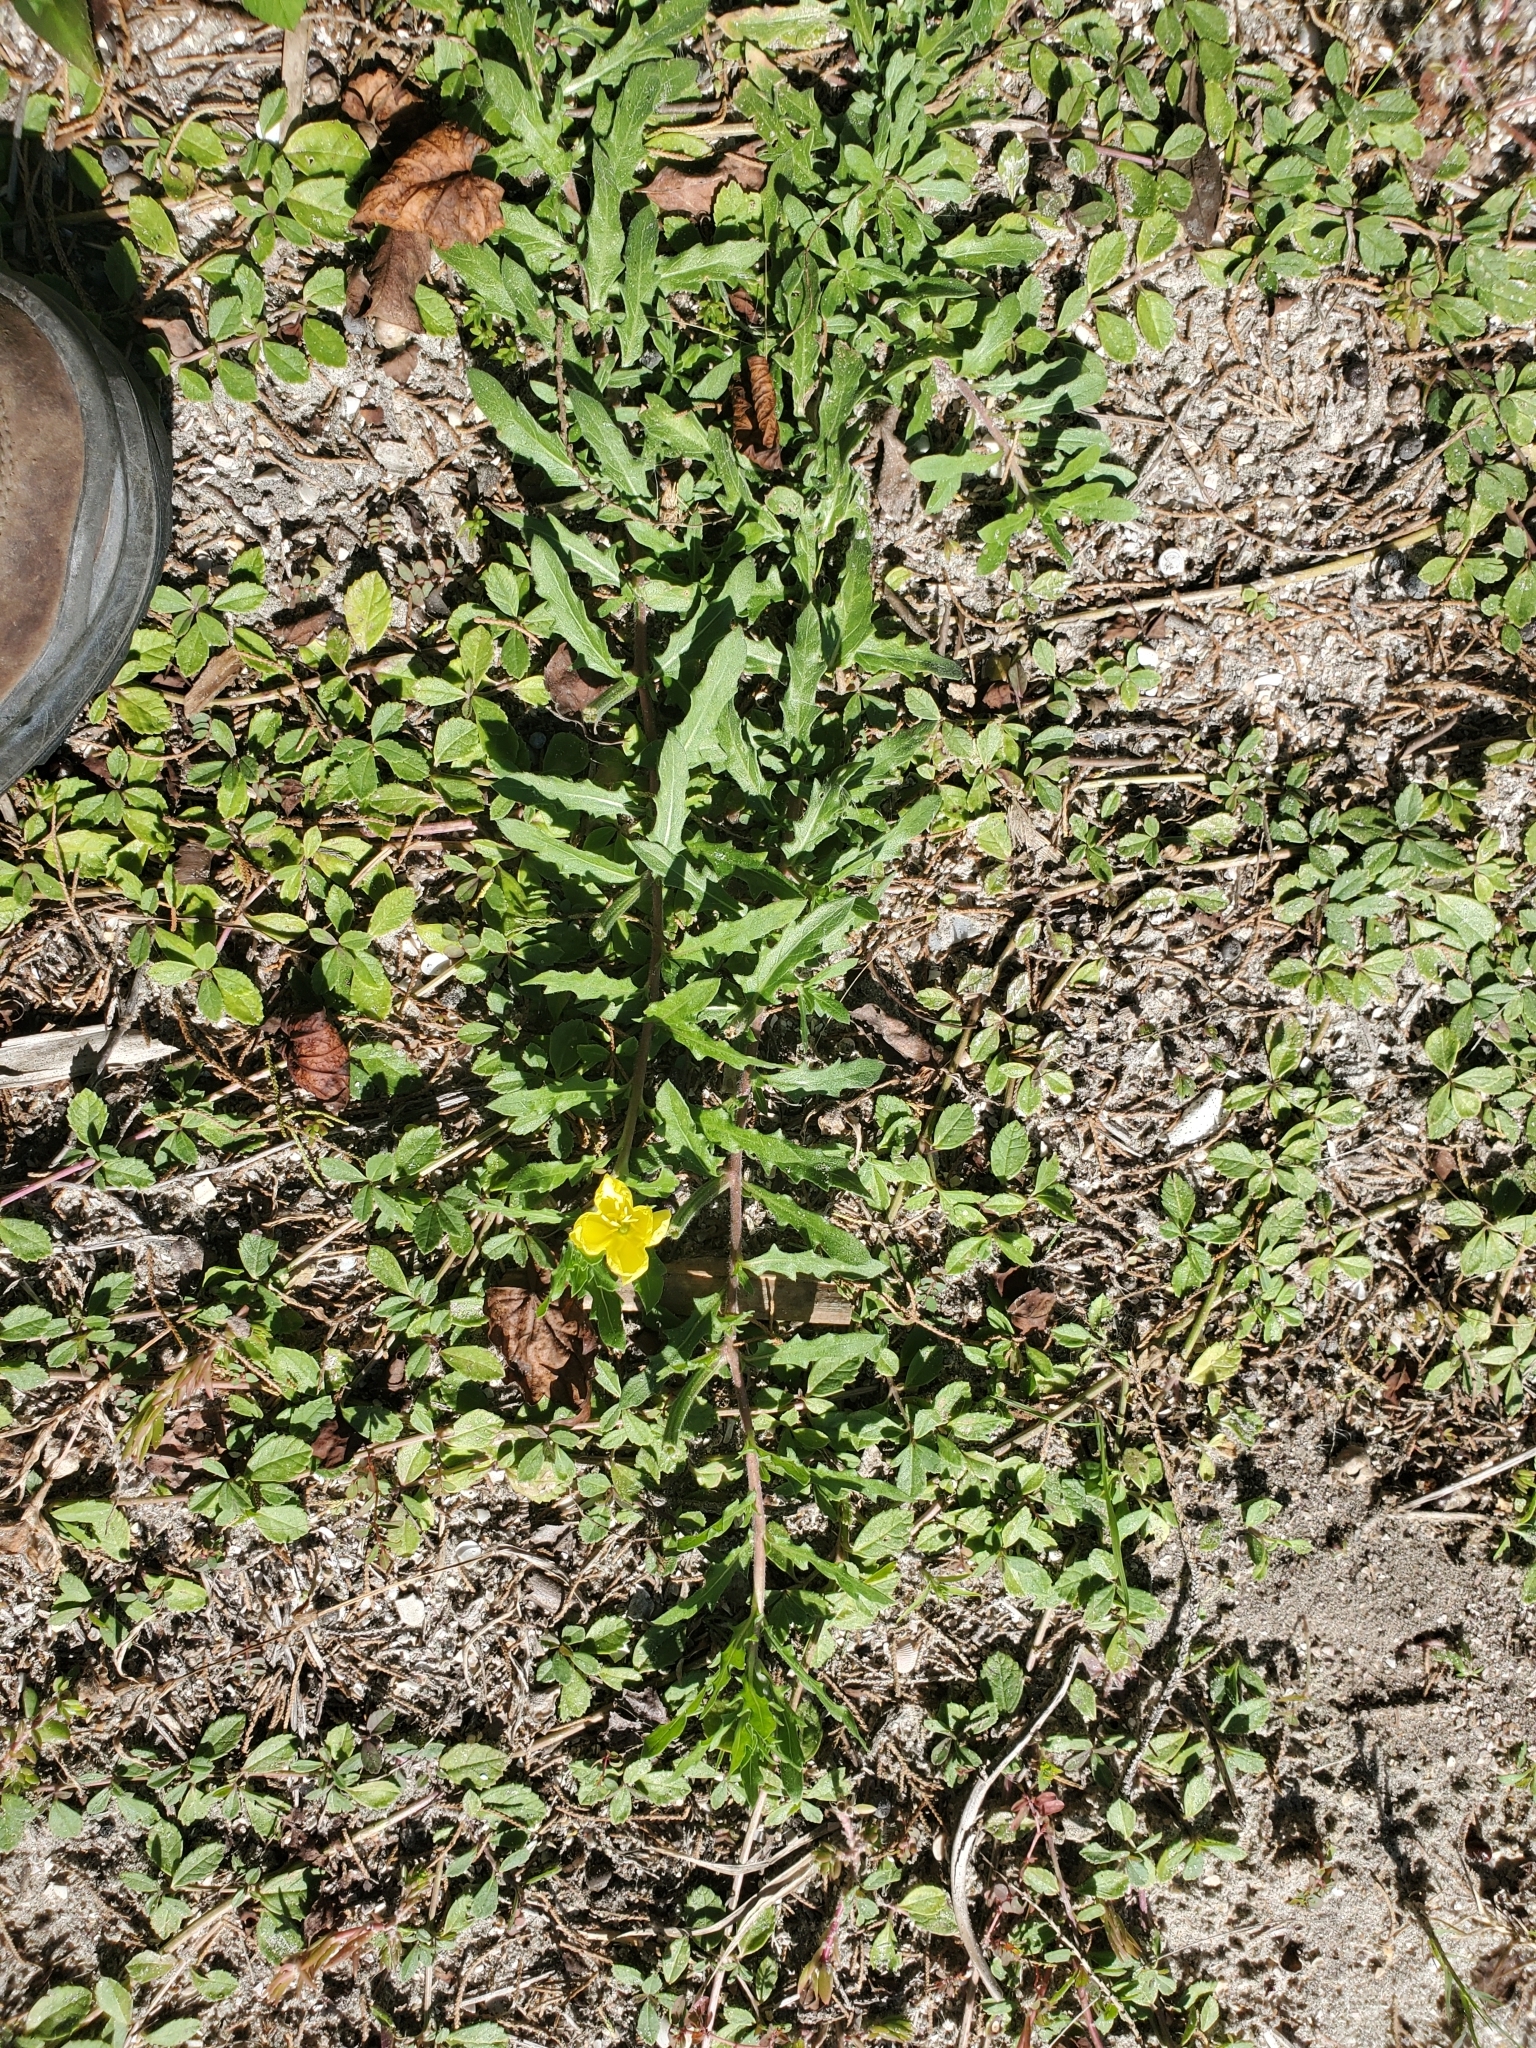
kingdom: Plantae
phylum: Tracheophyta
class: Magnoliopsida
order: Myrtales
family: Onagraceae
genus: Oenothera
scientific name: Oenothera laciniata
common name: Cut-leaved evening-primrose
